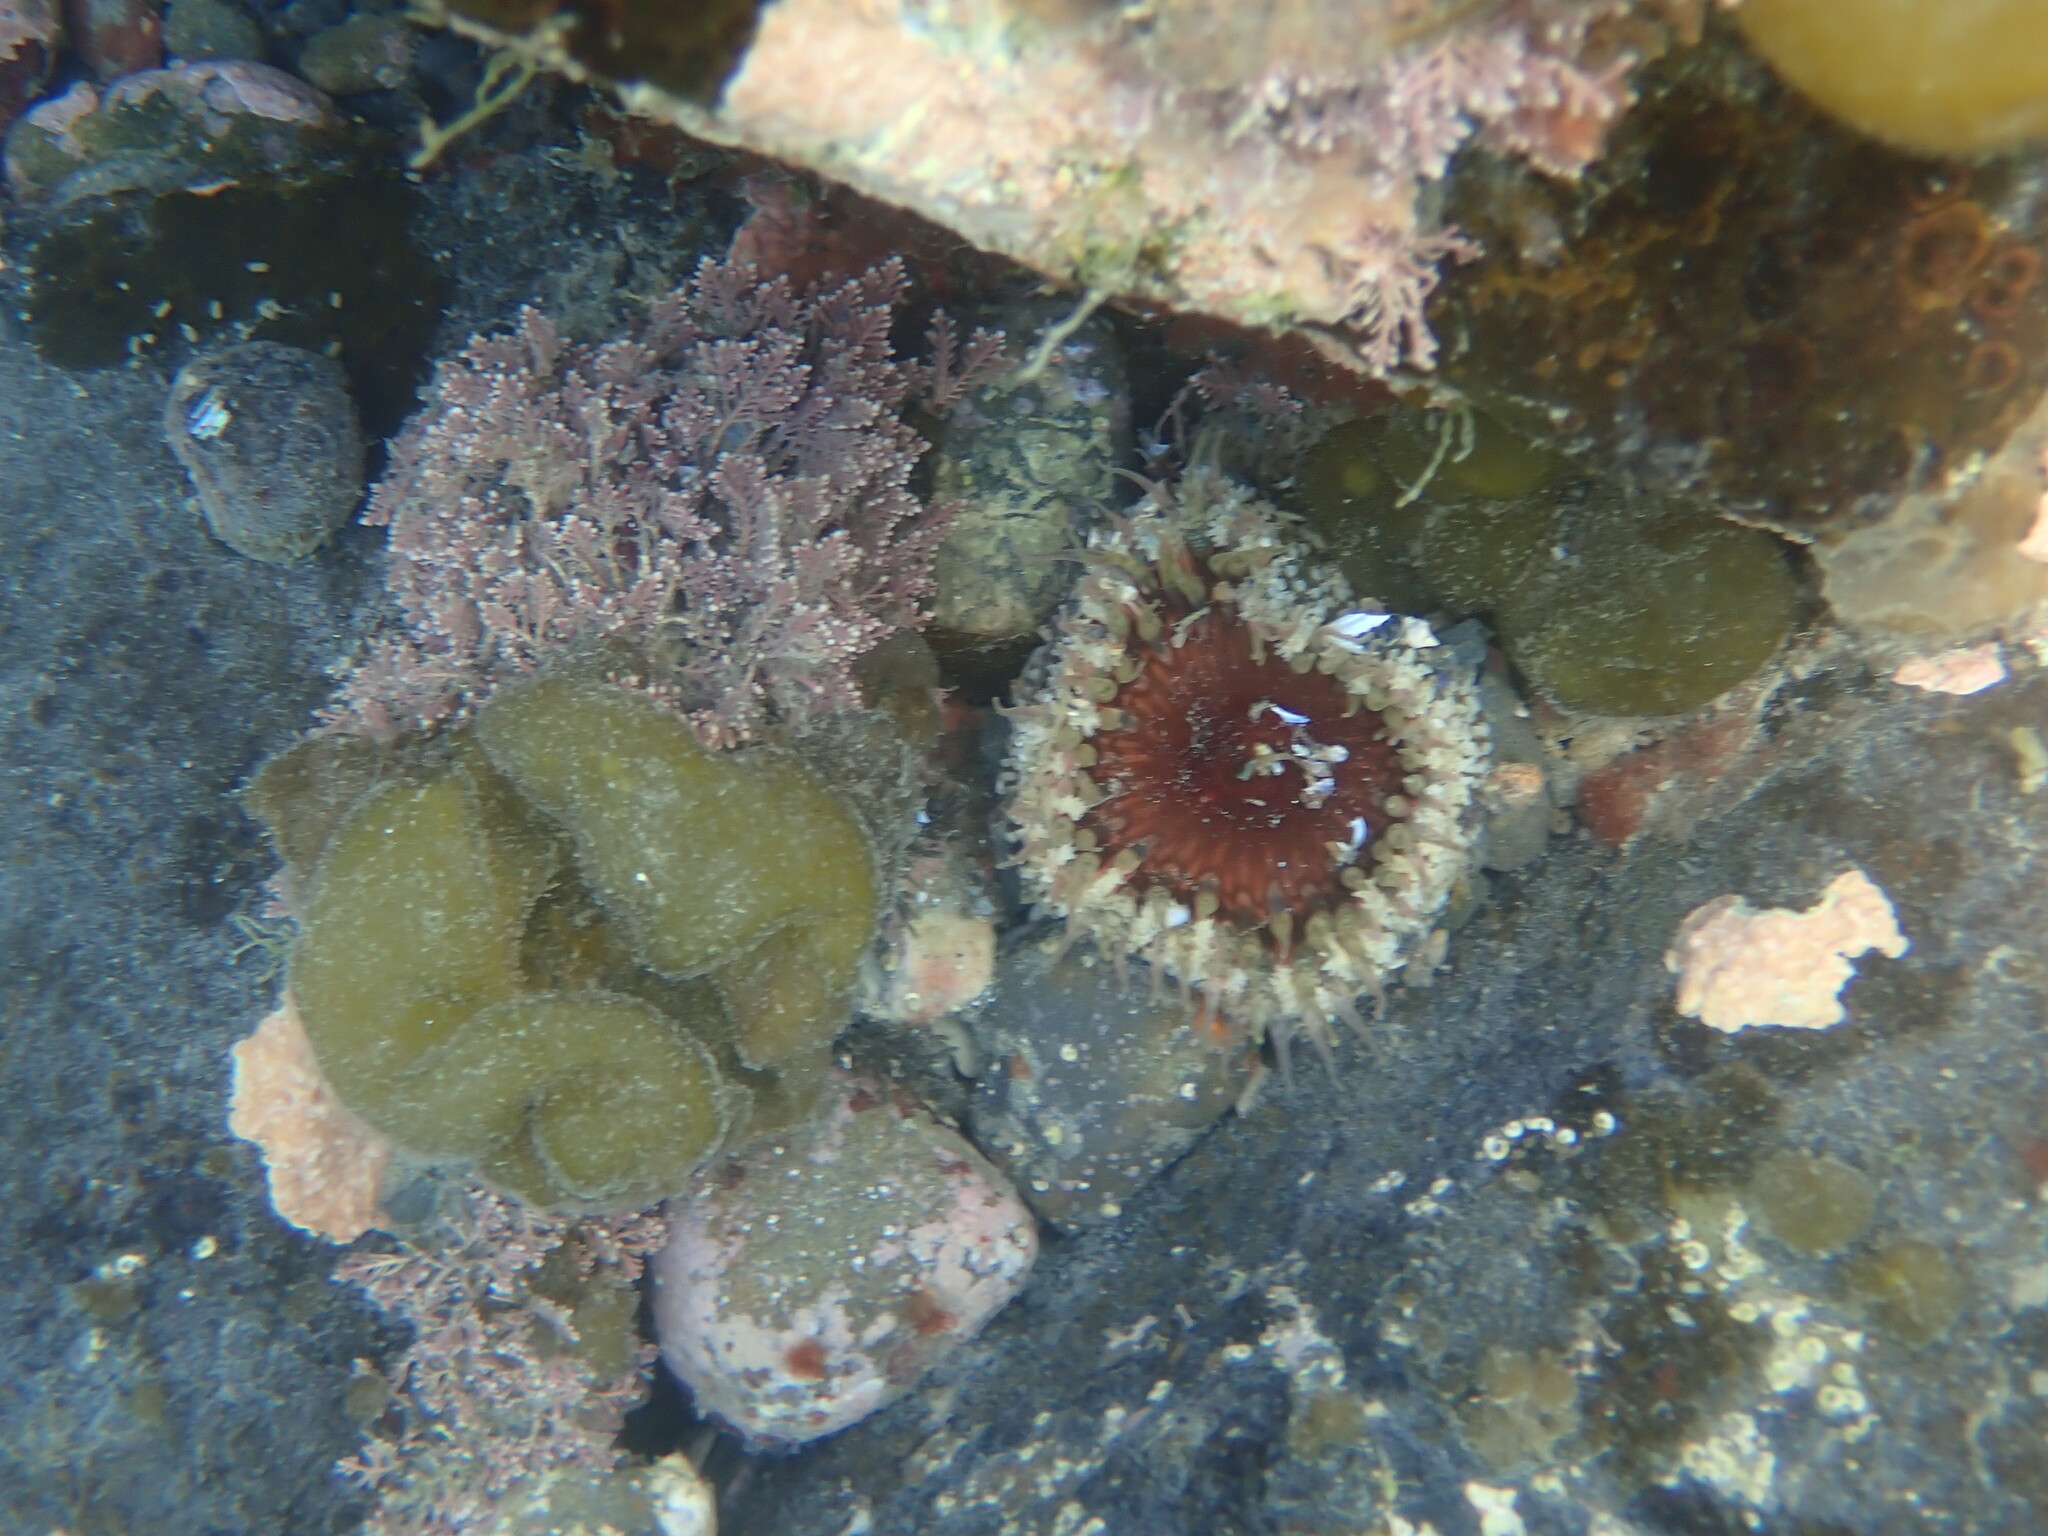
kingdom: Animalia
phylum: Cnidaria
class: Anthozoa
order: Actiniaria
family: Actiniidae
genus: Oulactis
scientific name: Oulactis muscosa
